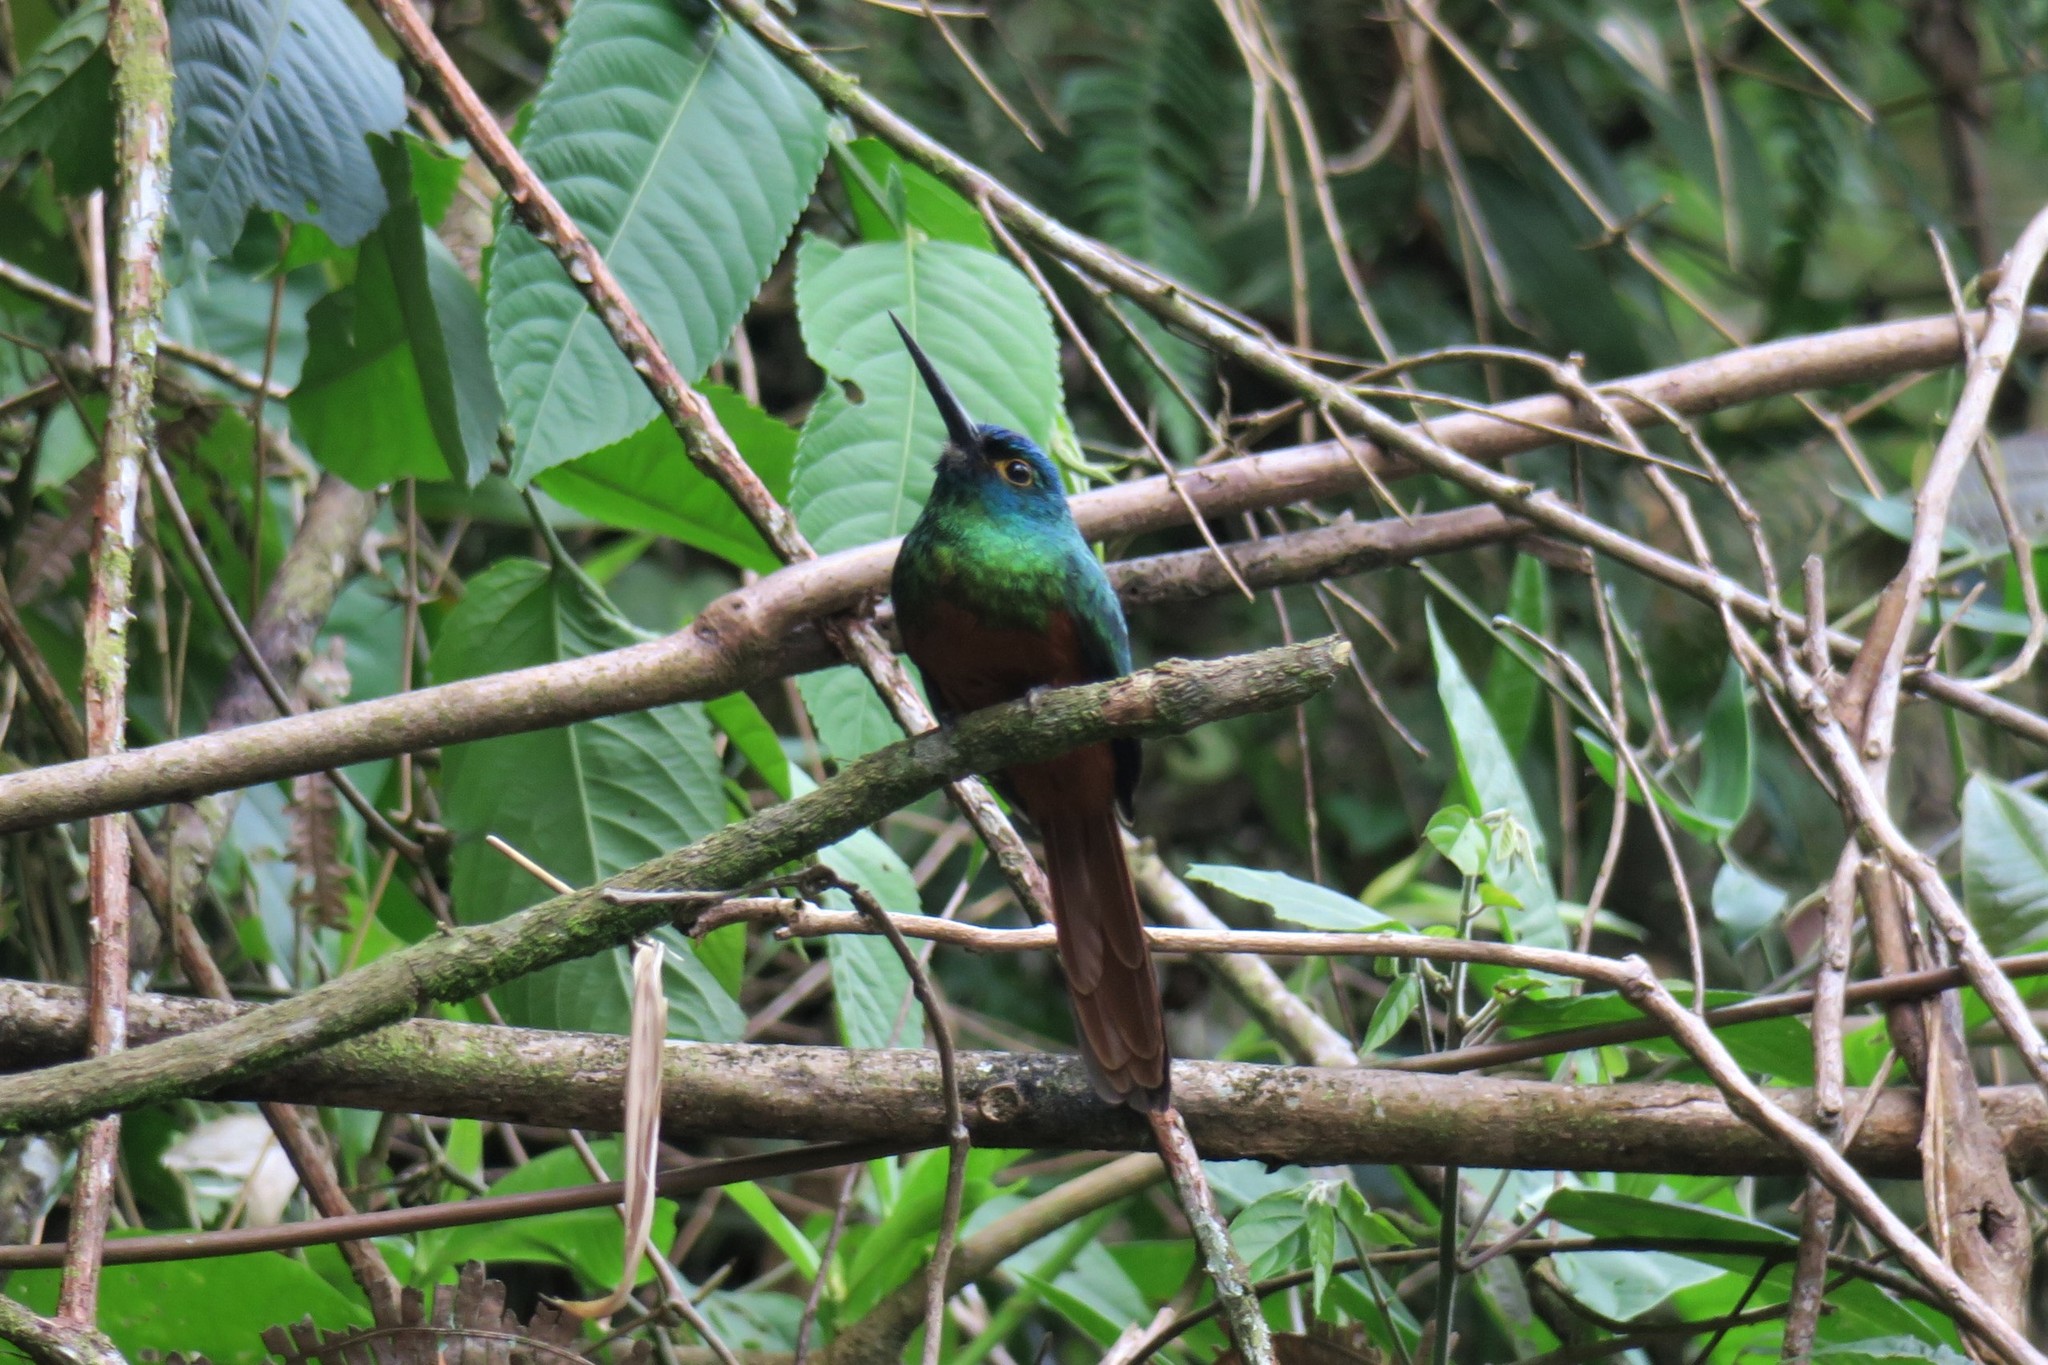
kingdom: Animalia
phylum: Chordata
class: Aves
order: Piciformes
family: Galbulidae
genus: Galbula
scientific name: Galbula pastazae
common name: Coppery-chested jacamar
